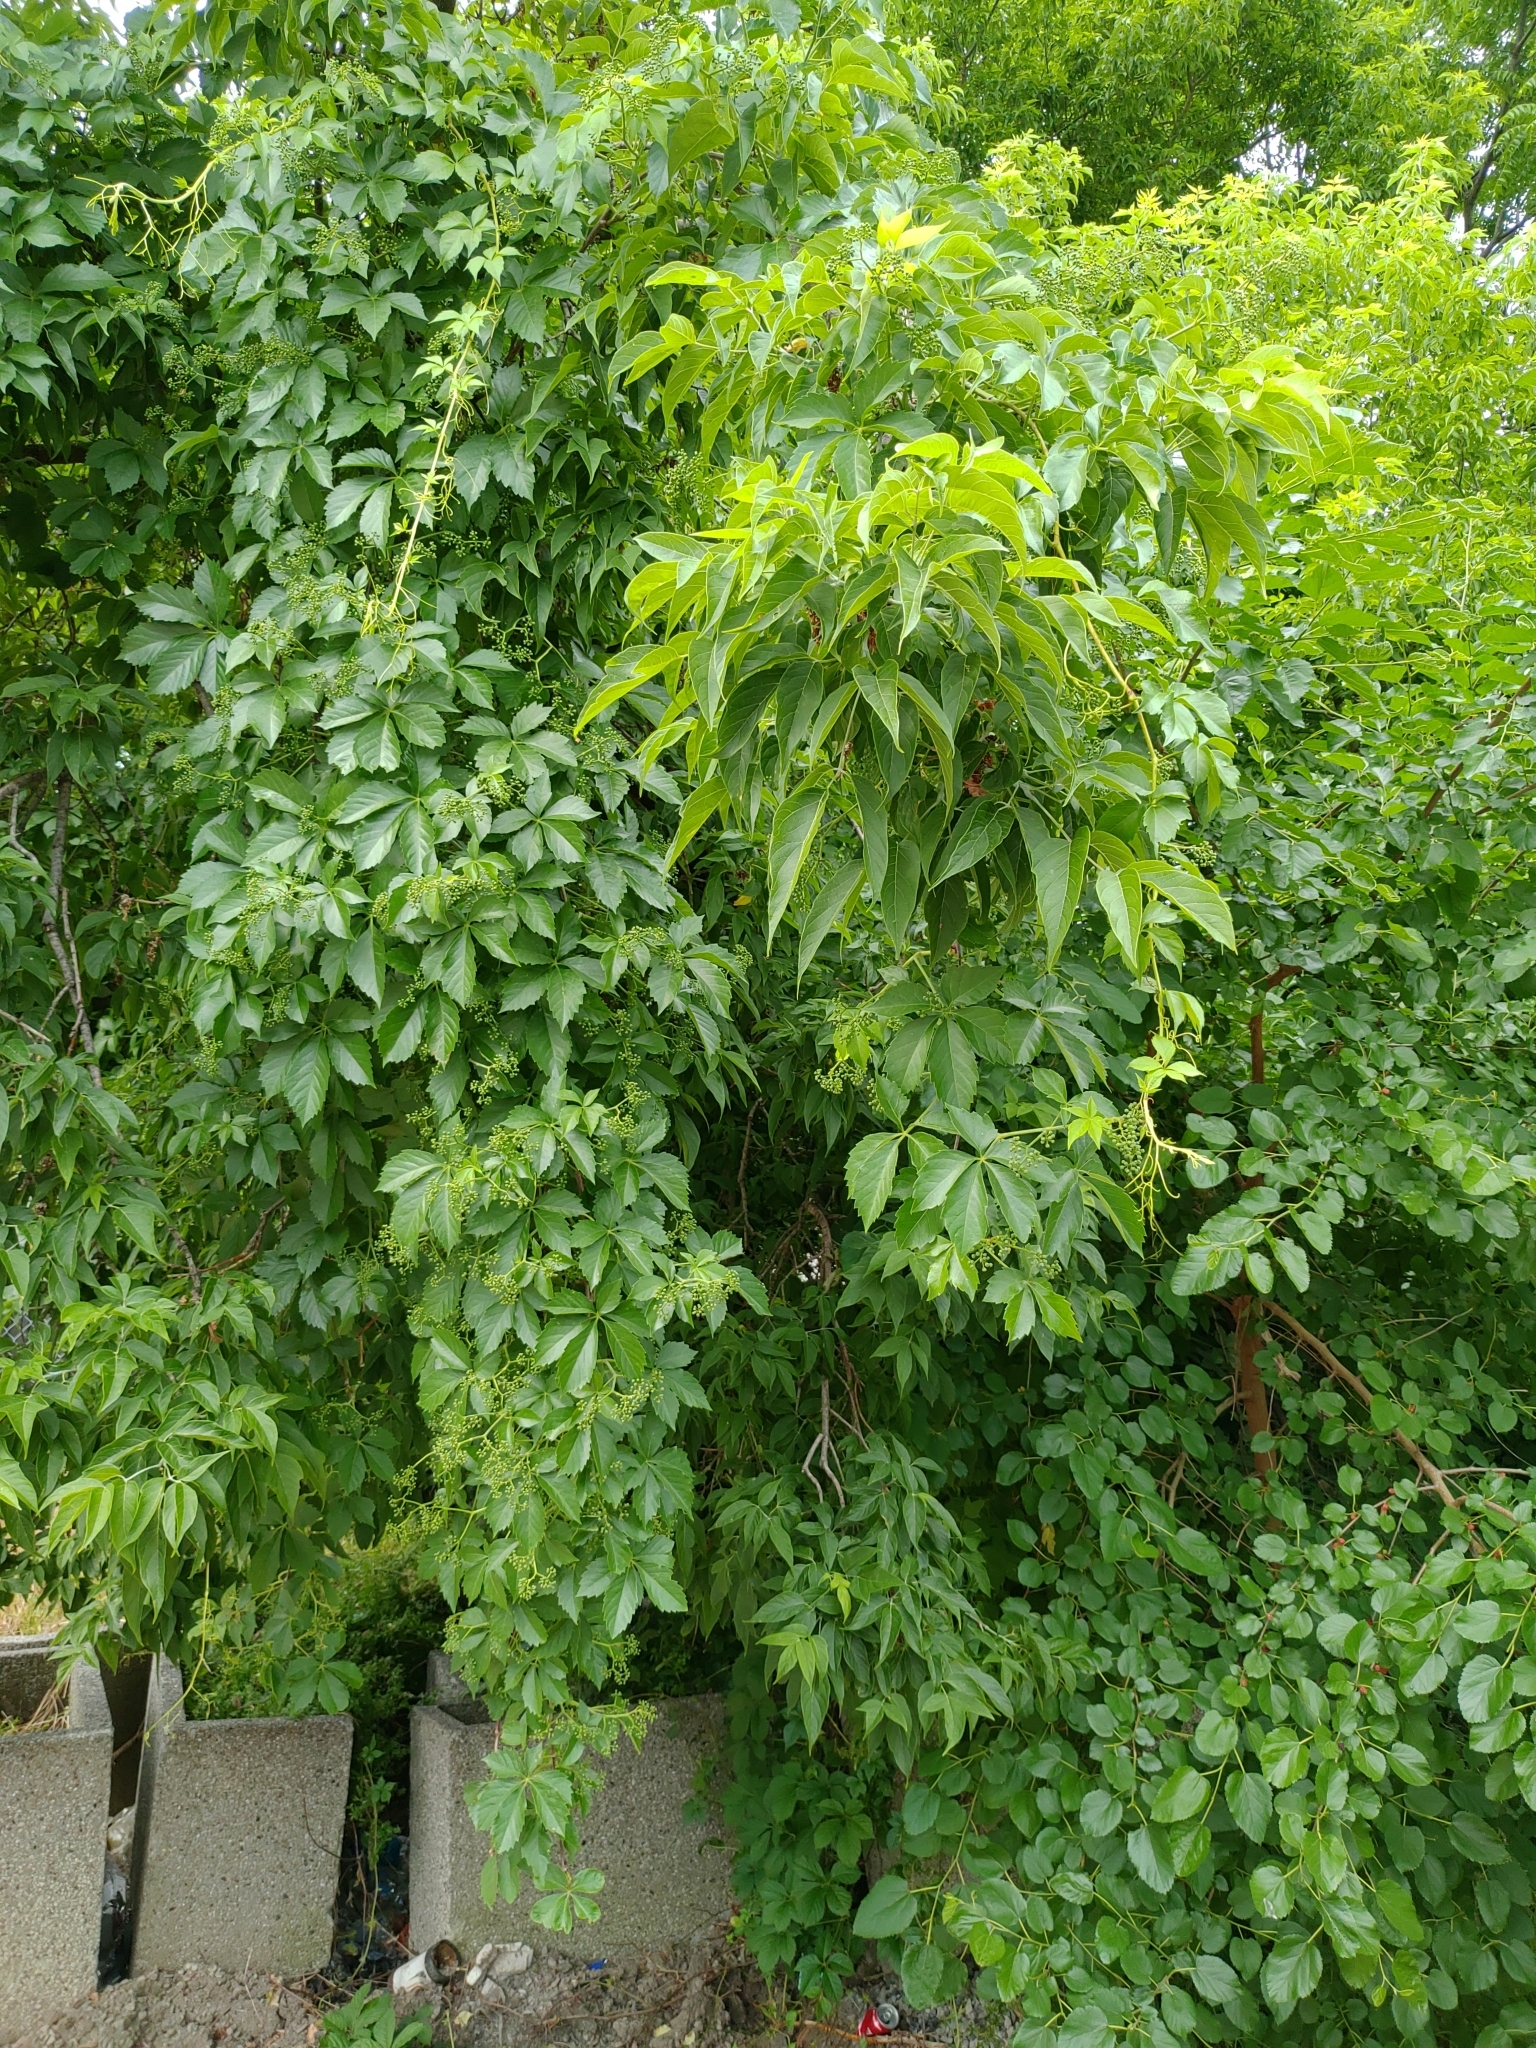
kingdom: Plantae
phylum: Tracheophyta
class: Magnoliopsida
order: Vitales
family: Vitaceae
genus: Parthenocissus
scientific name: Parthenocissus quinquefolia
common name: Virginia-creeper
